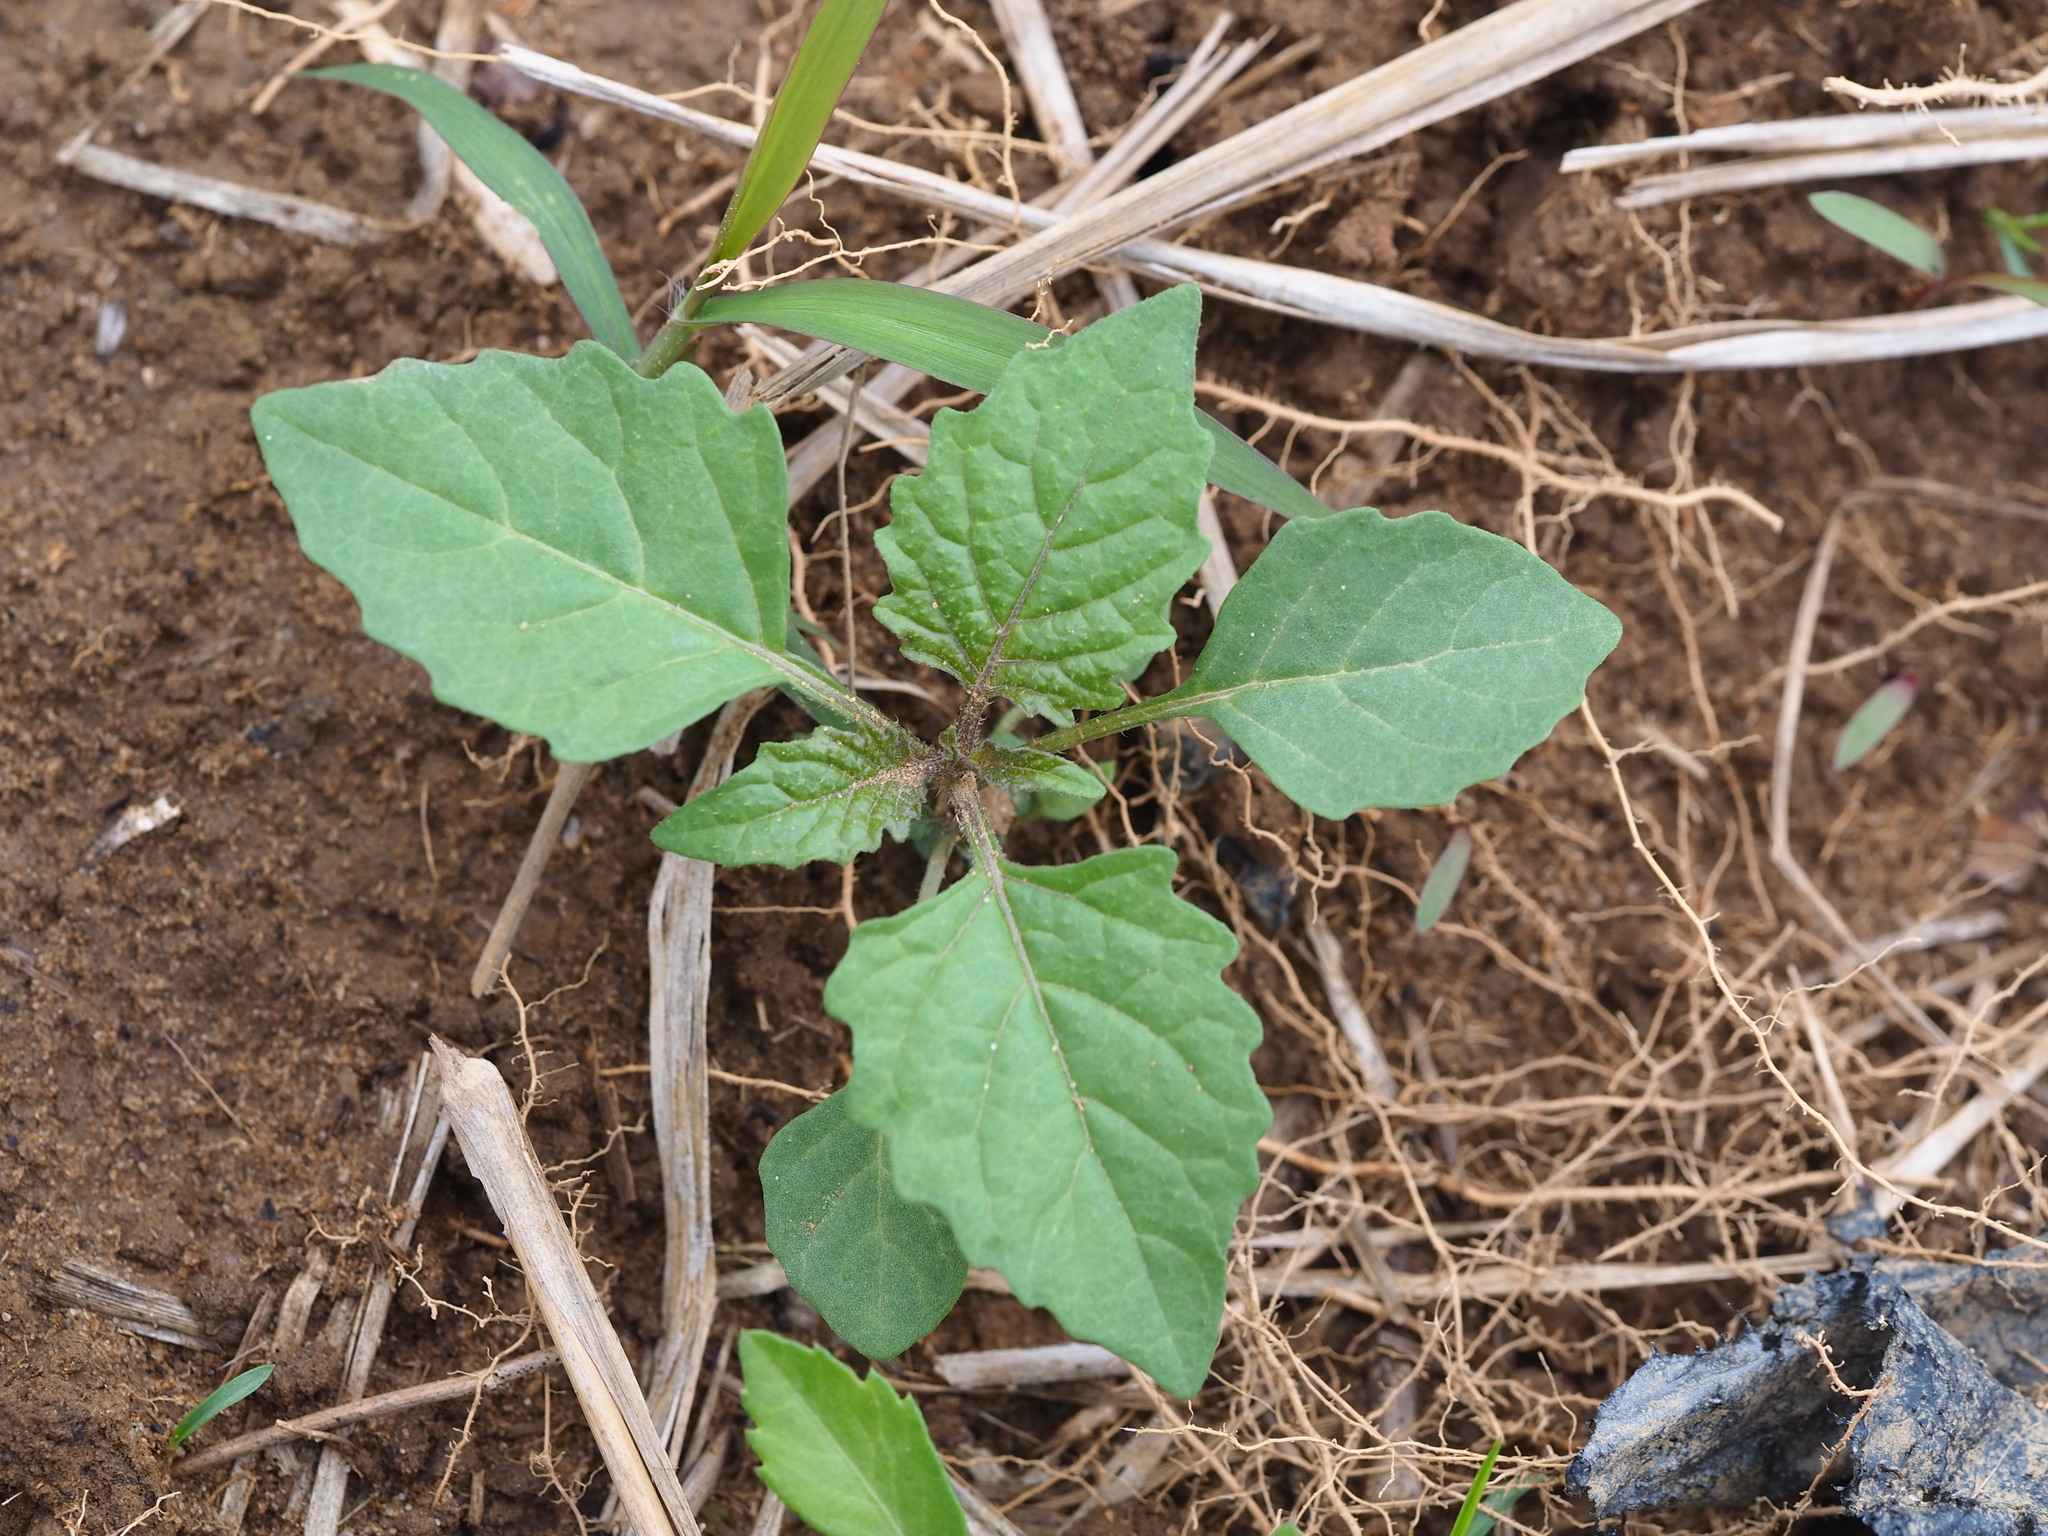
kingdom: Plantae
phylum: Tracheophyta
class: Magnoliopsida
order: Solanales
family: Solanaceae
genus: Solanum
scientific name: Solanum
